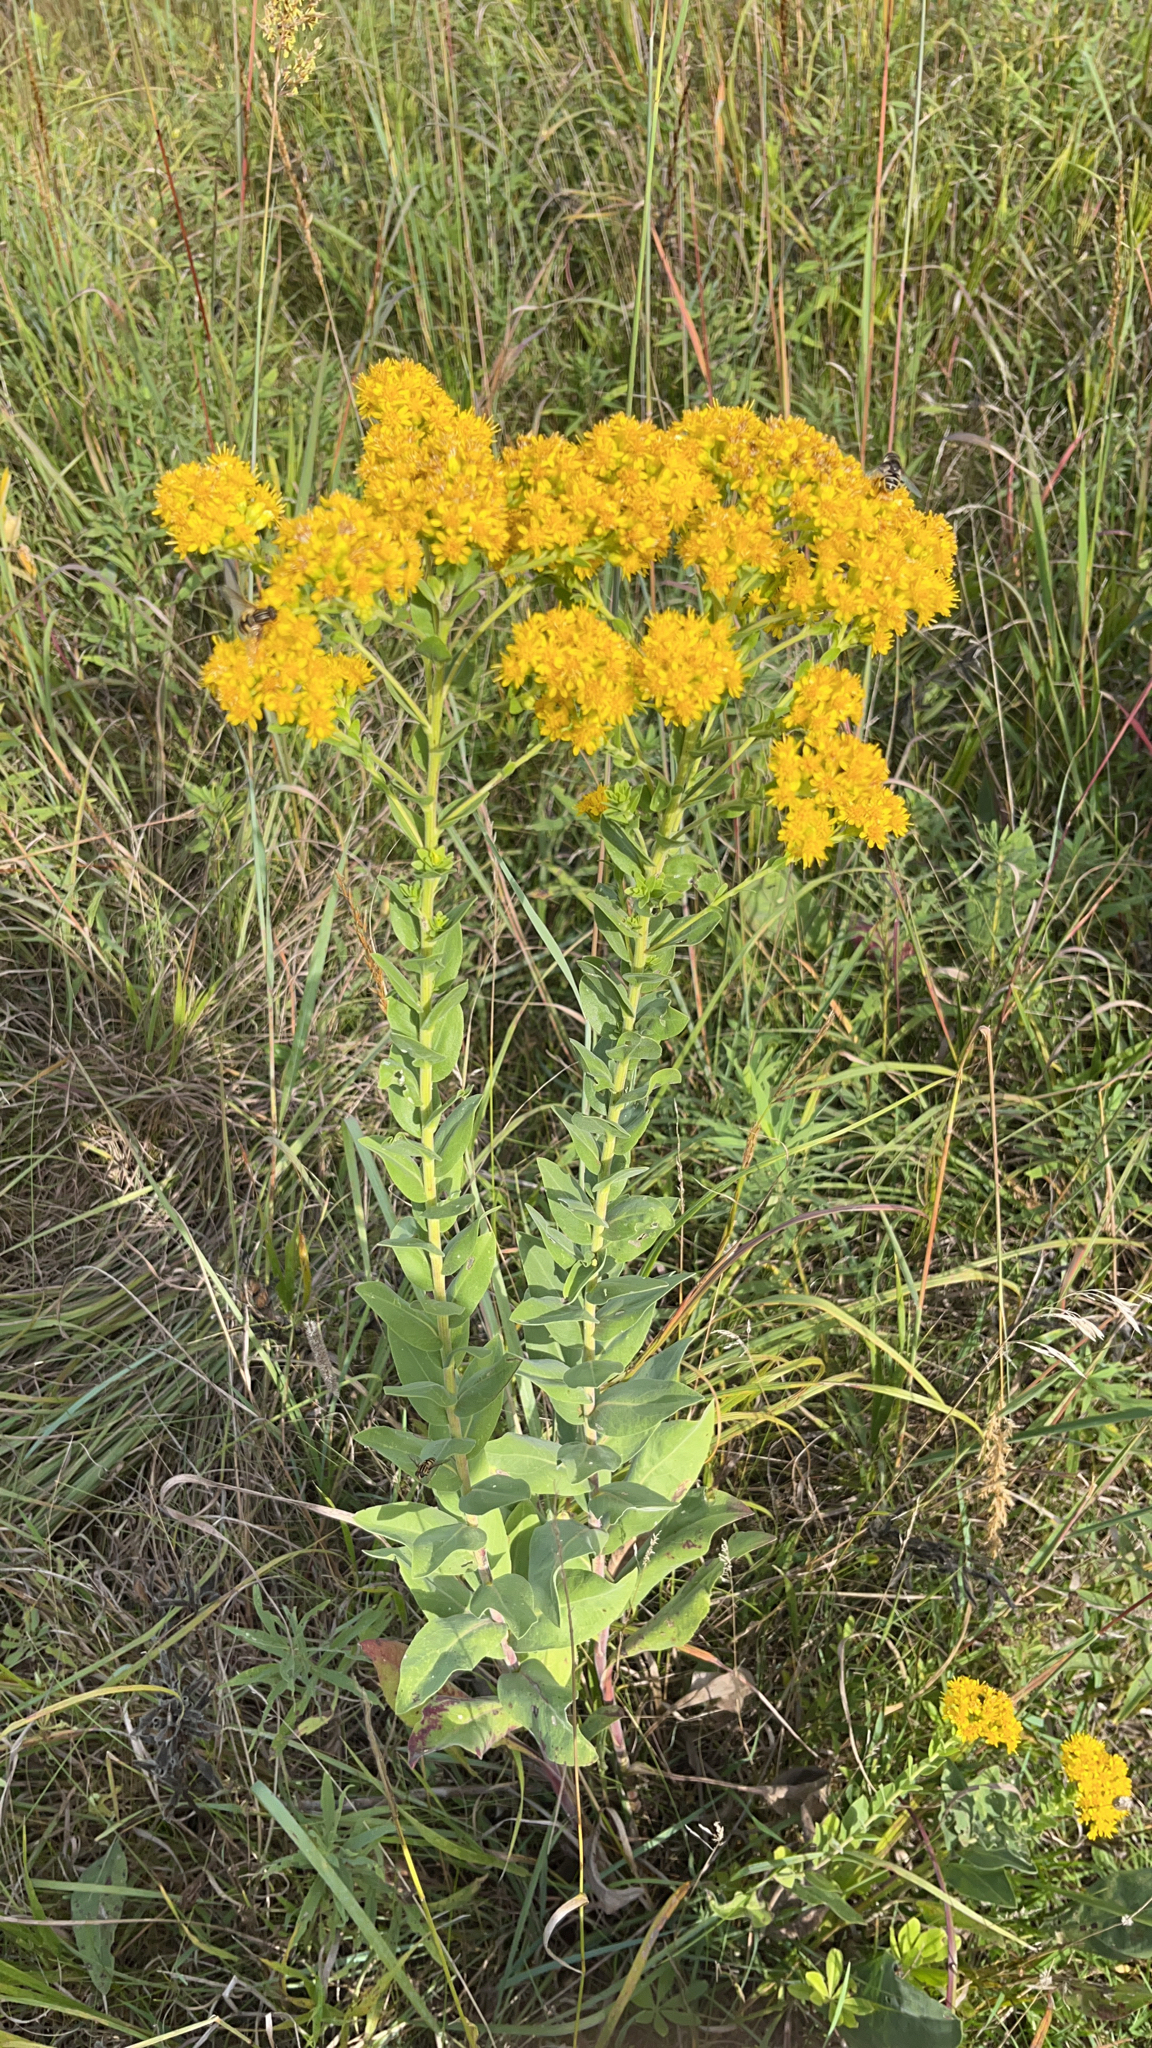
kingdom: Plantae
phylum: Tracheophyta
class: Magnoliopsida
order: Asterales
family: Asteraceae
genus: Solidago
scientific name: Solidago rigida
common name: Rigid goldenrod
